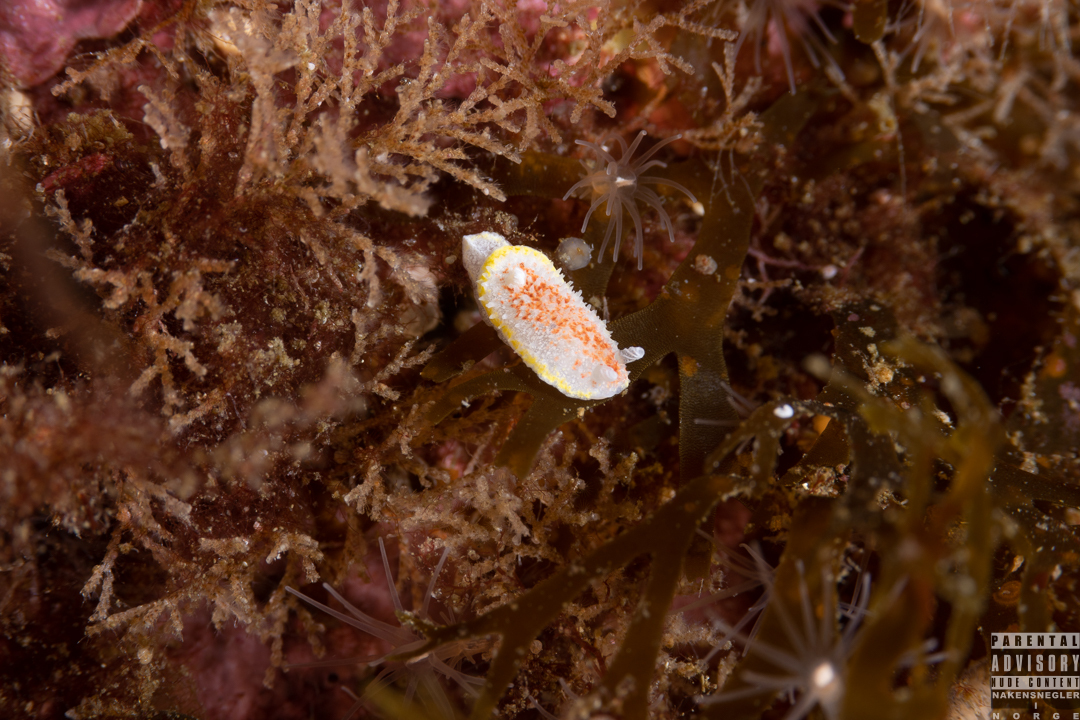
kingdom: Animalia
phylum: Mollusca
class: Gastropoda
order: Nudibranchia
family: Calycidorididae
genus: Diaphorodoris
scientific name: Diaphorodoris luteocincta
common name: Fried egg nudibranch
